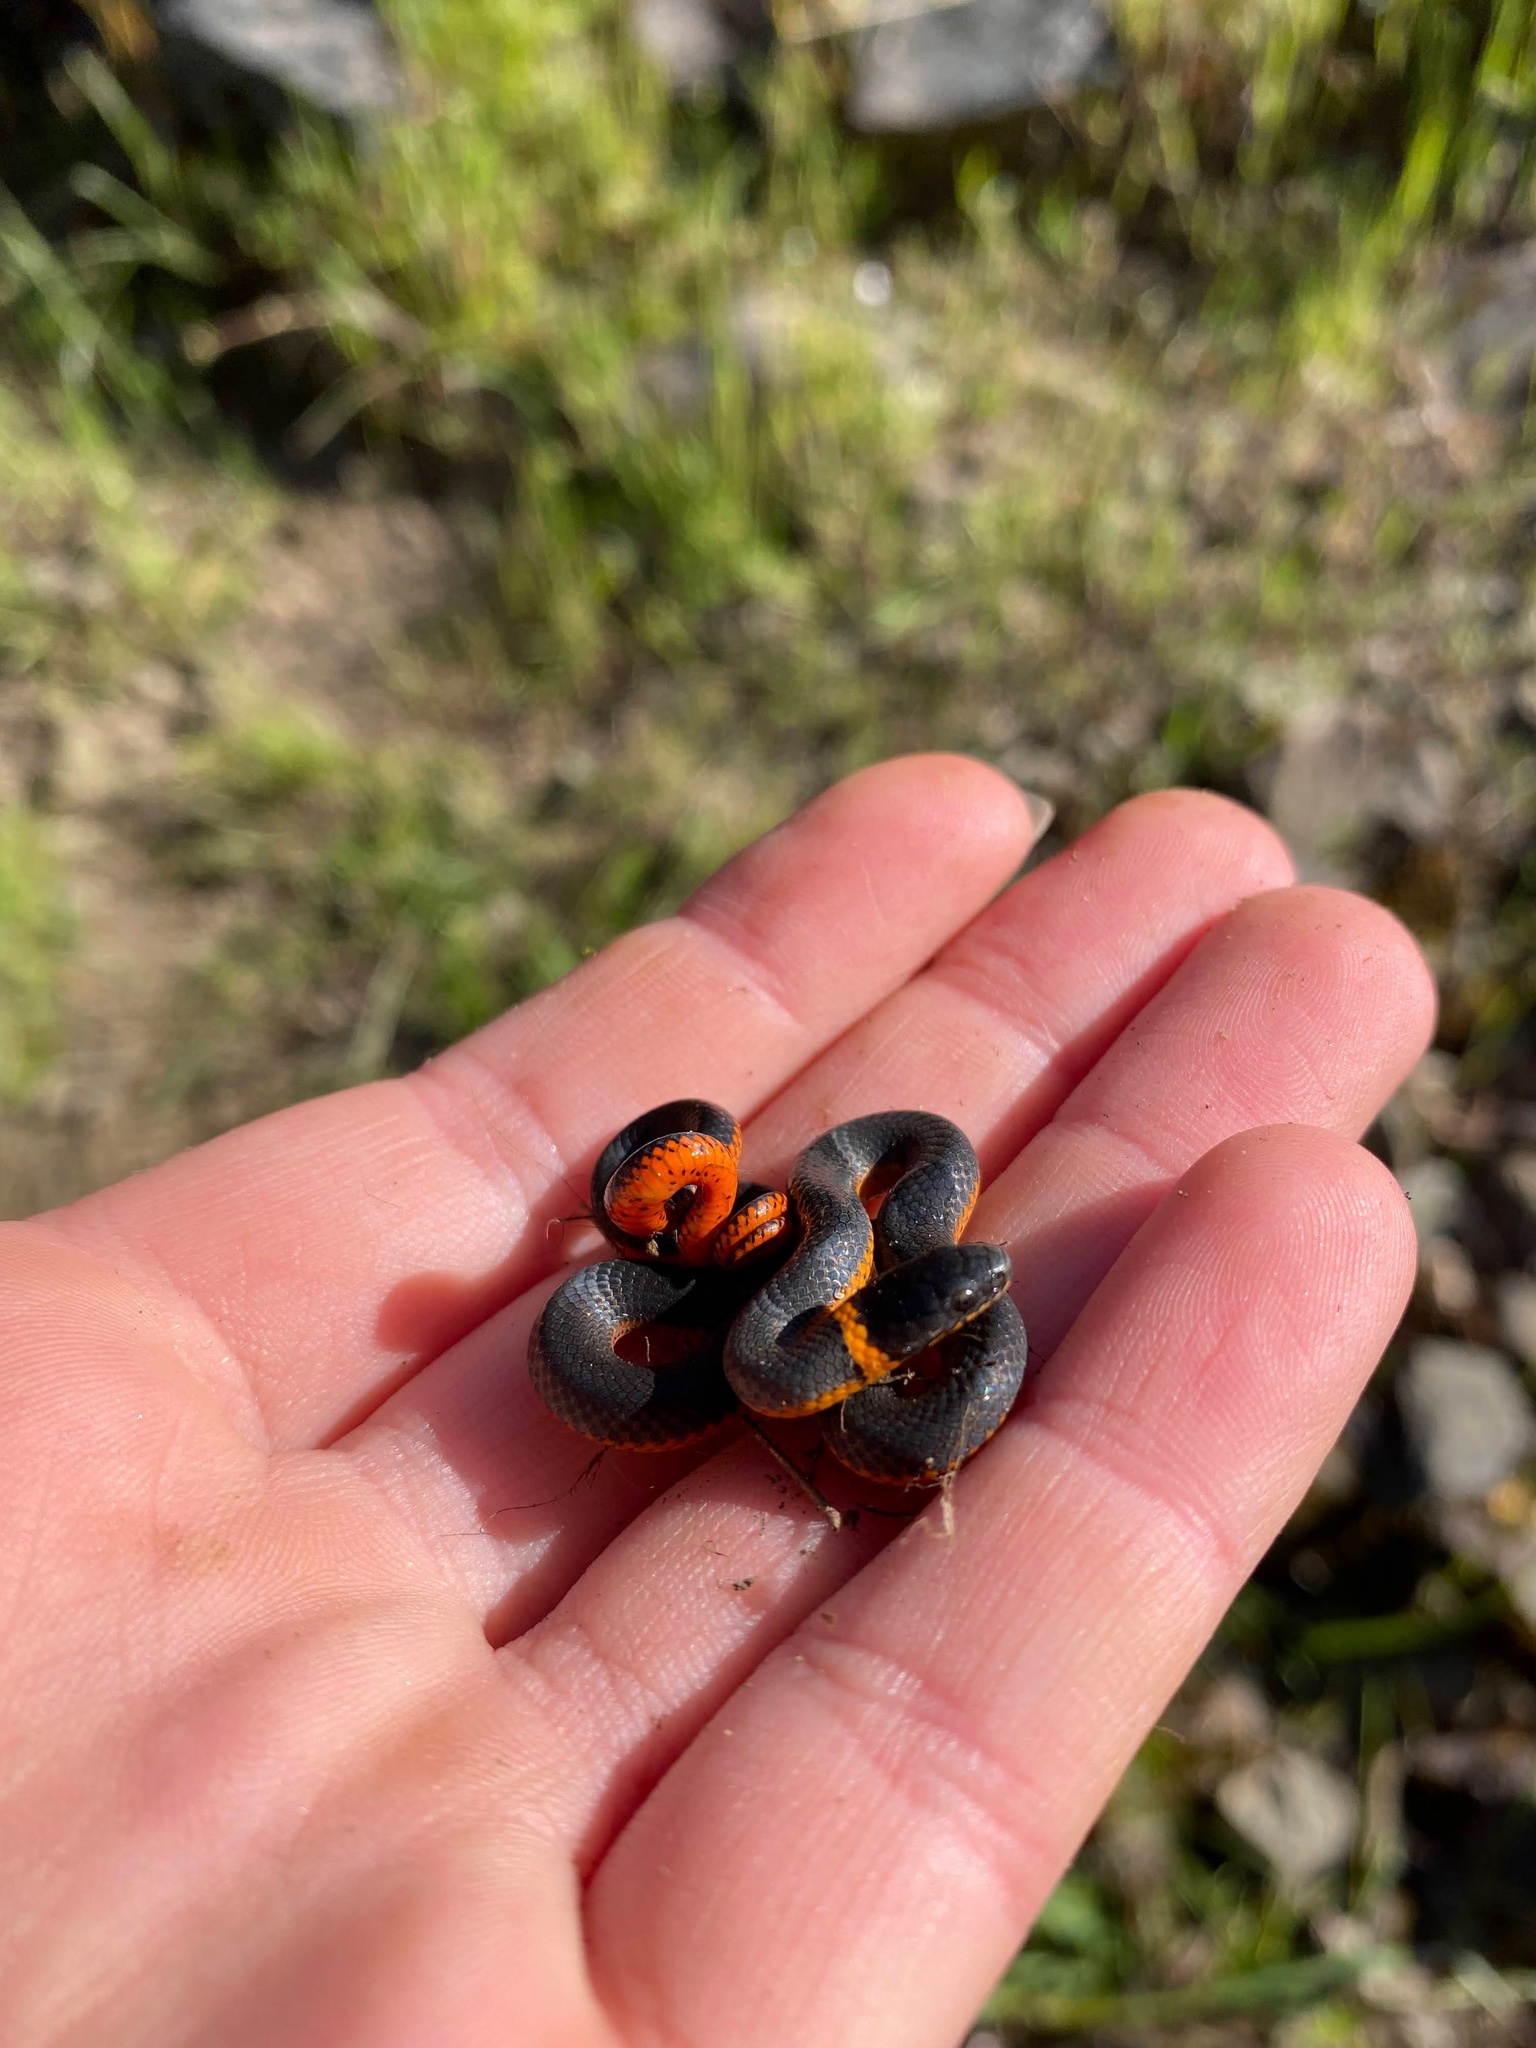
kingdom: Animalia
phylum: Chordata
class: Squamata
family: Colubridae
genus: Diadophis
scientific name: Diadophis punctatus
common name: Ringneck snake
